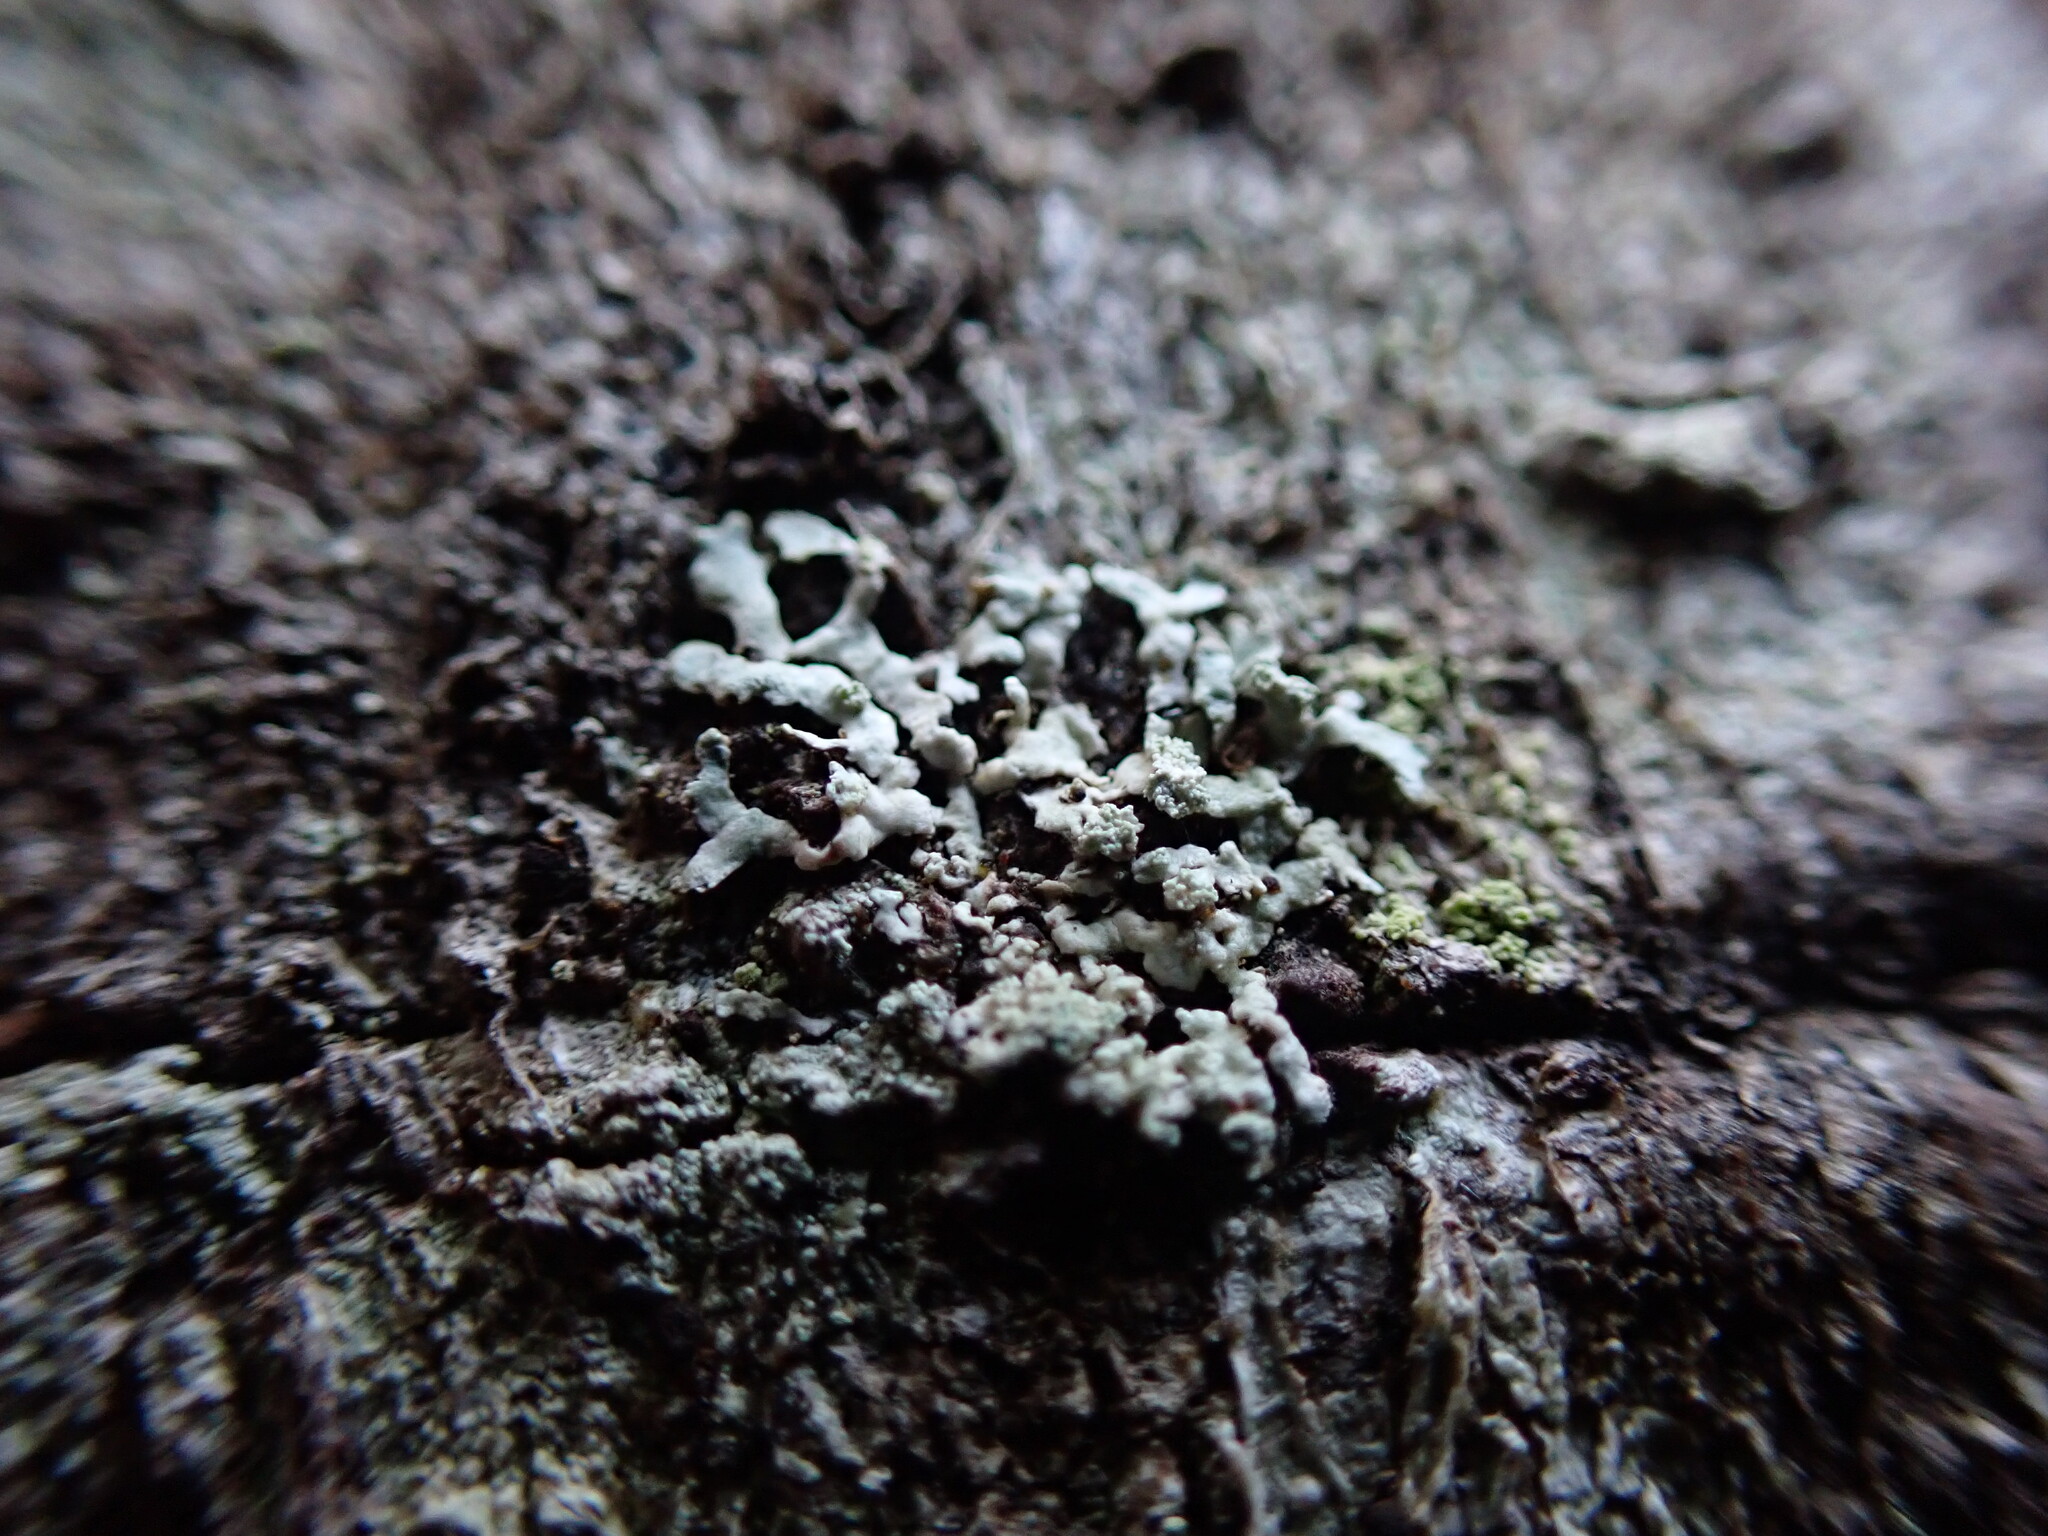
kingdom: Fungi
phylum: Ascomycota
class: Lecanoromycetes
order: Lecanorales
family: Parmeliaceae
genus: Parmeliopsis
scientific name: Parmeliopsis hyperopta
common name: Grey starburst lichen
